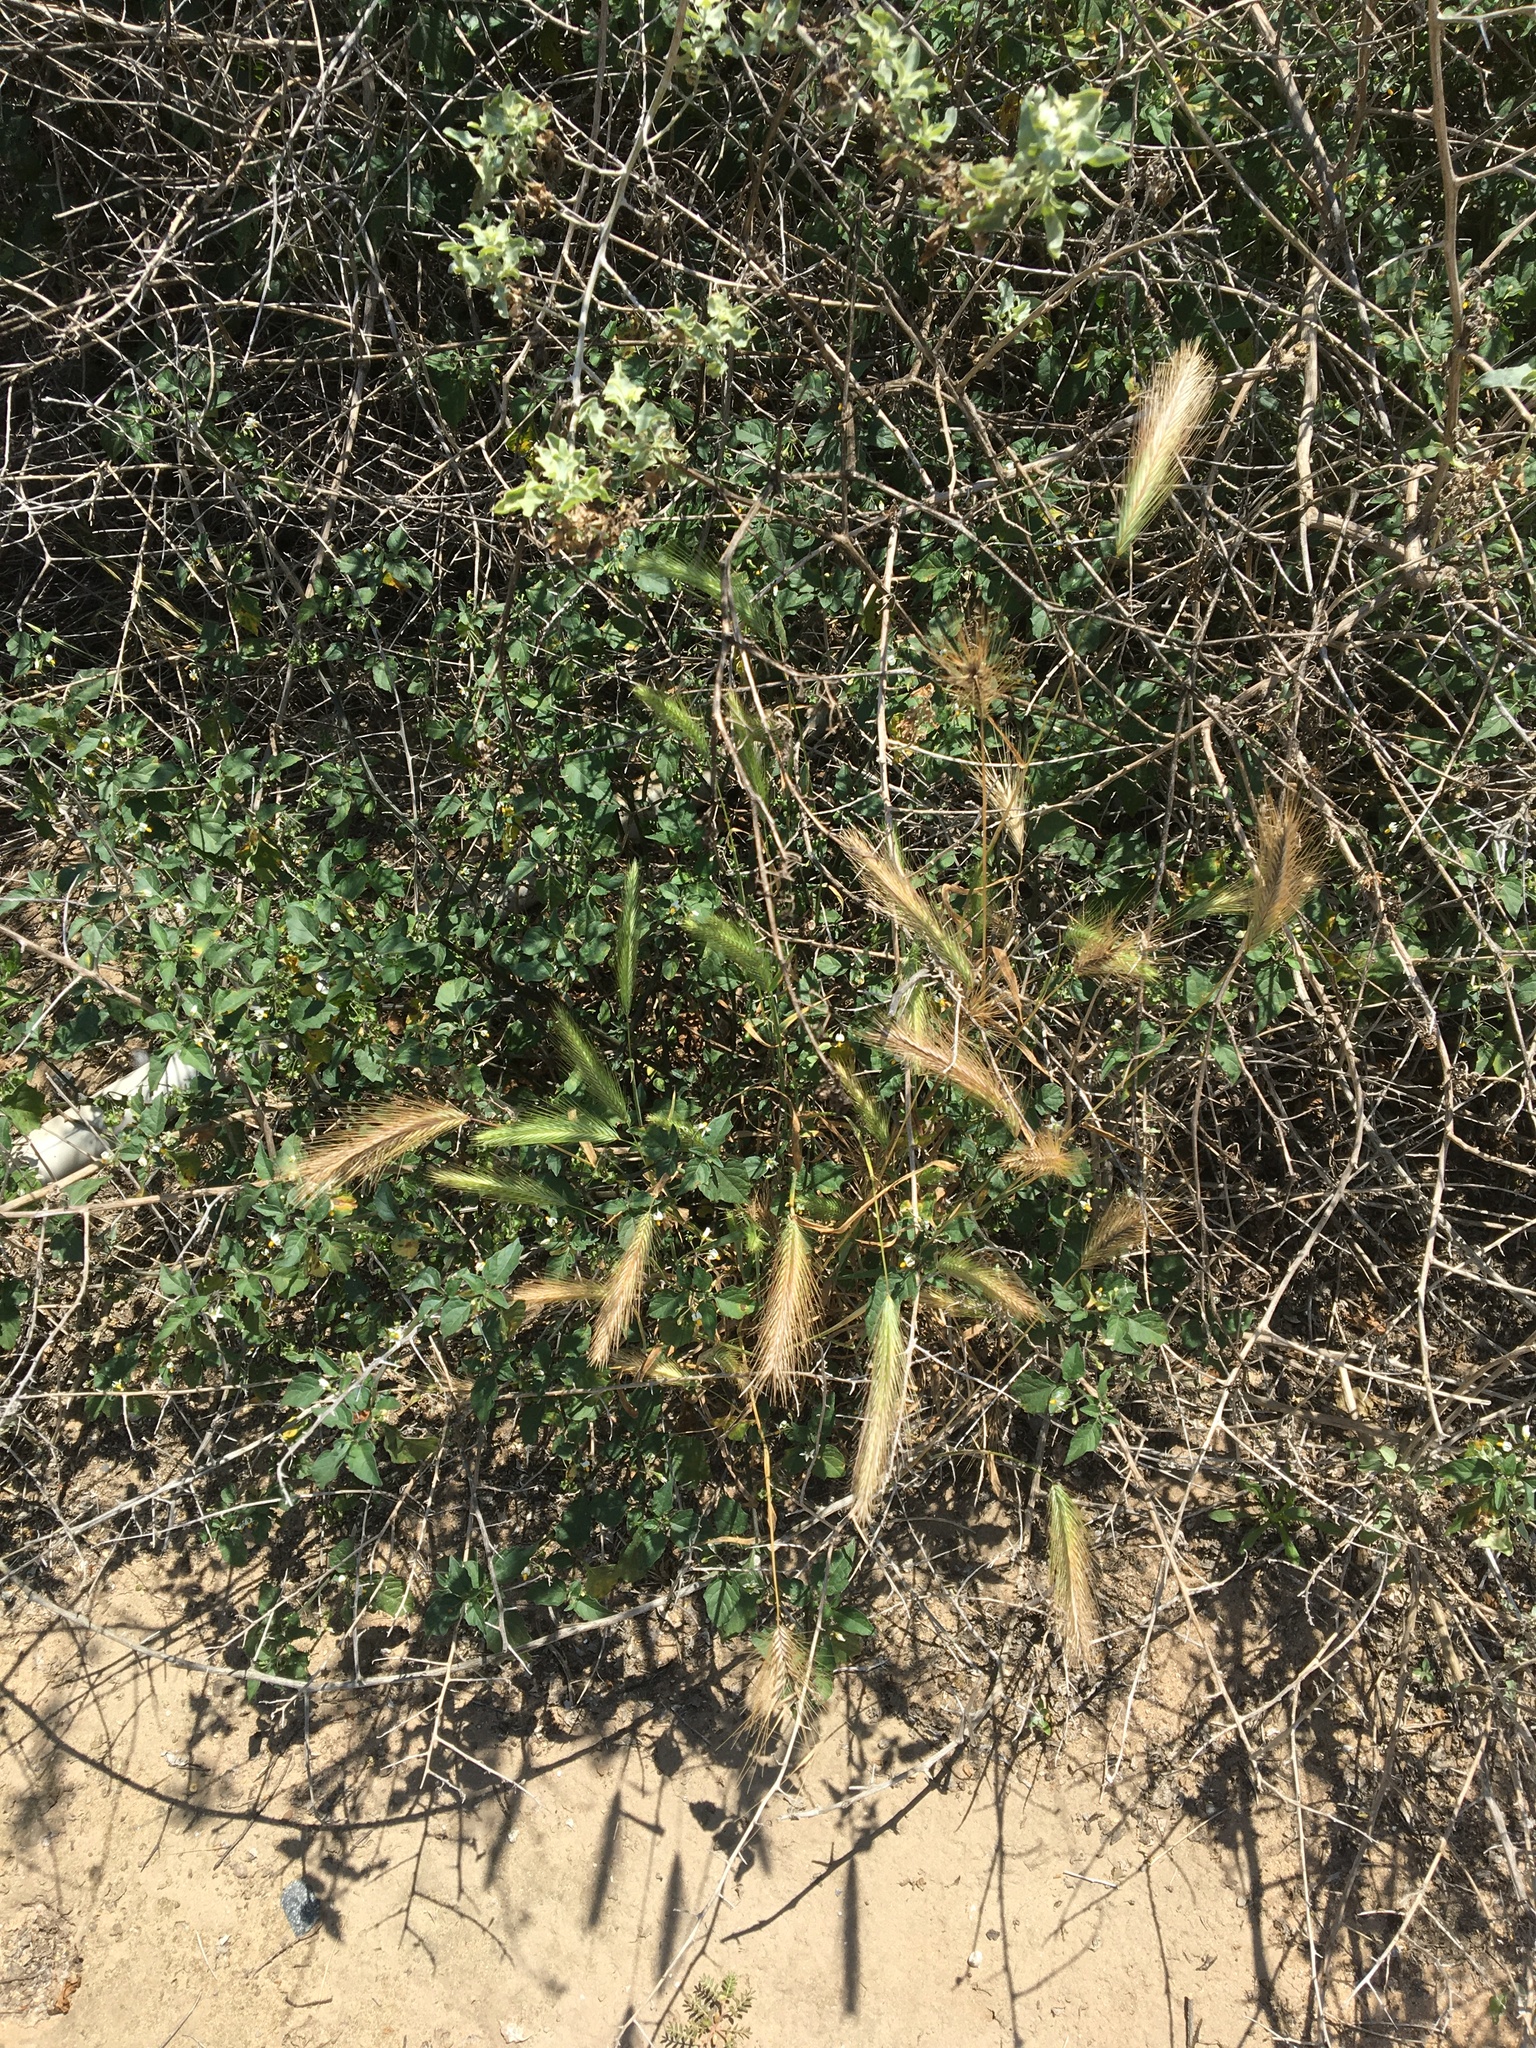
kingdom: Plantae
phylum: Tracheophyta
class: Liliopsida
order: Poales
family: Poaceae
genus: Hordeum
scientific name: Hordeum murinum
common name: Wall barley
